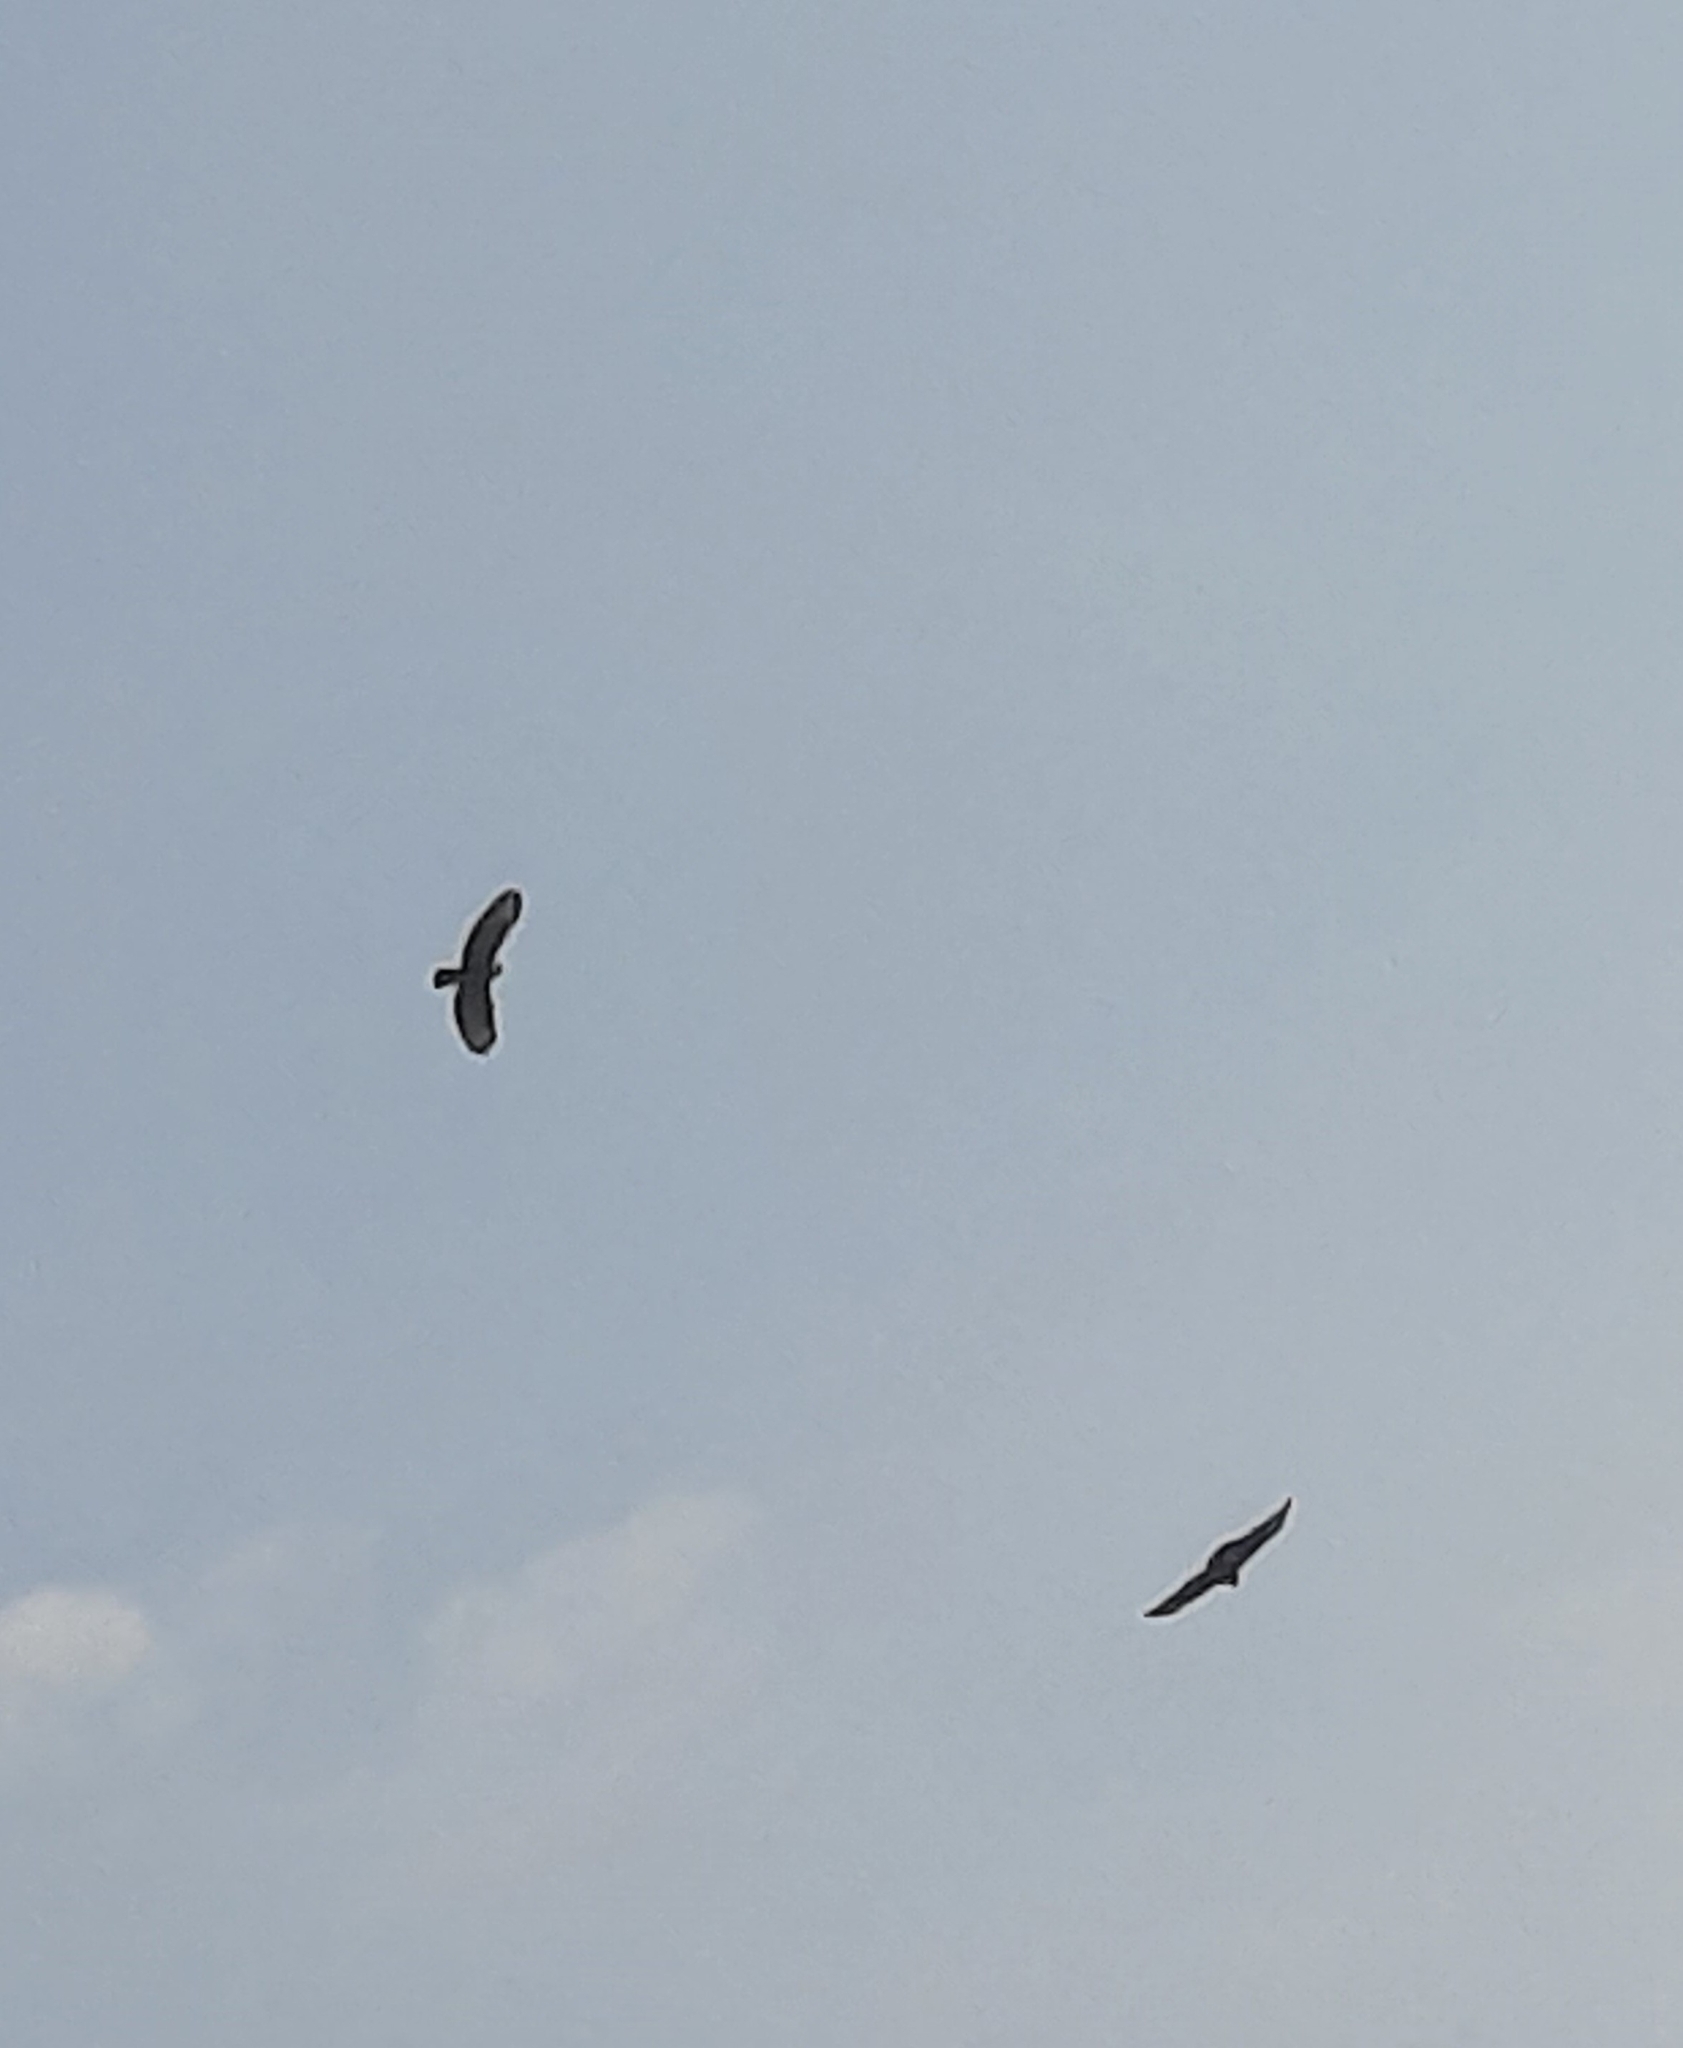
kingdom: Animalia
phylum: Chordata
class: Aves
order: Accipitriformes
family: Accipitridae
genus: Buteo
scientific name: Buteo buteo
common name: Common buzzard
